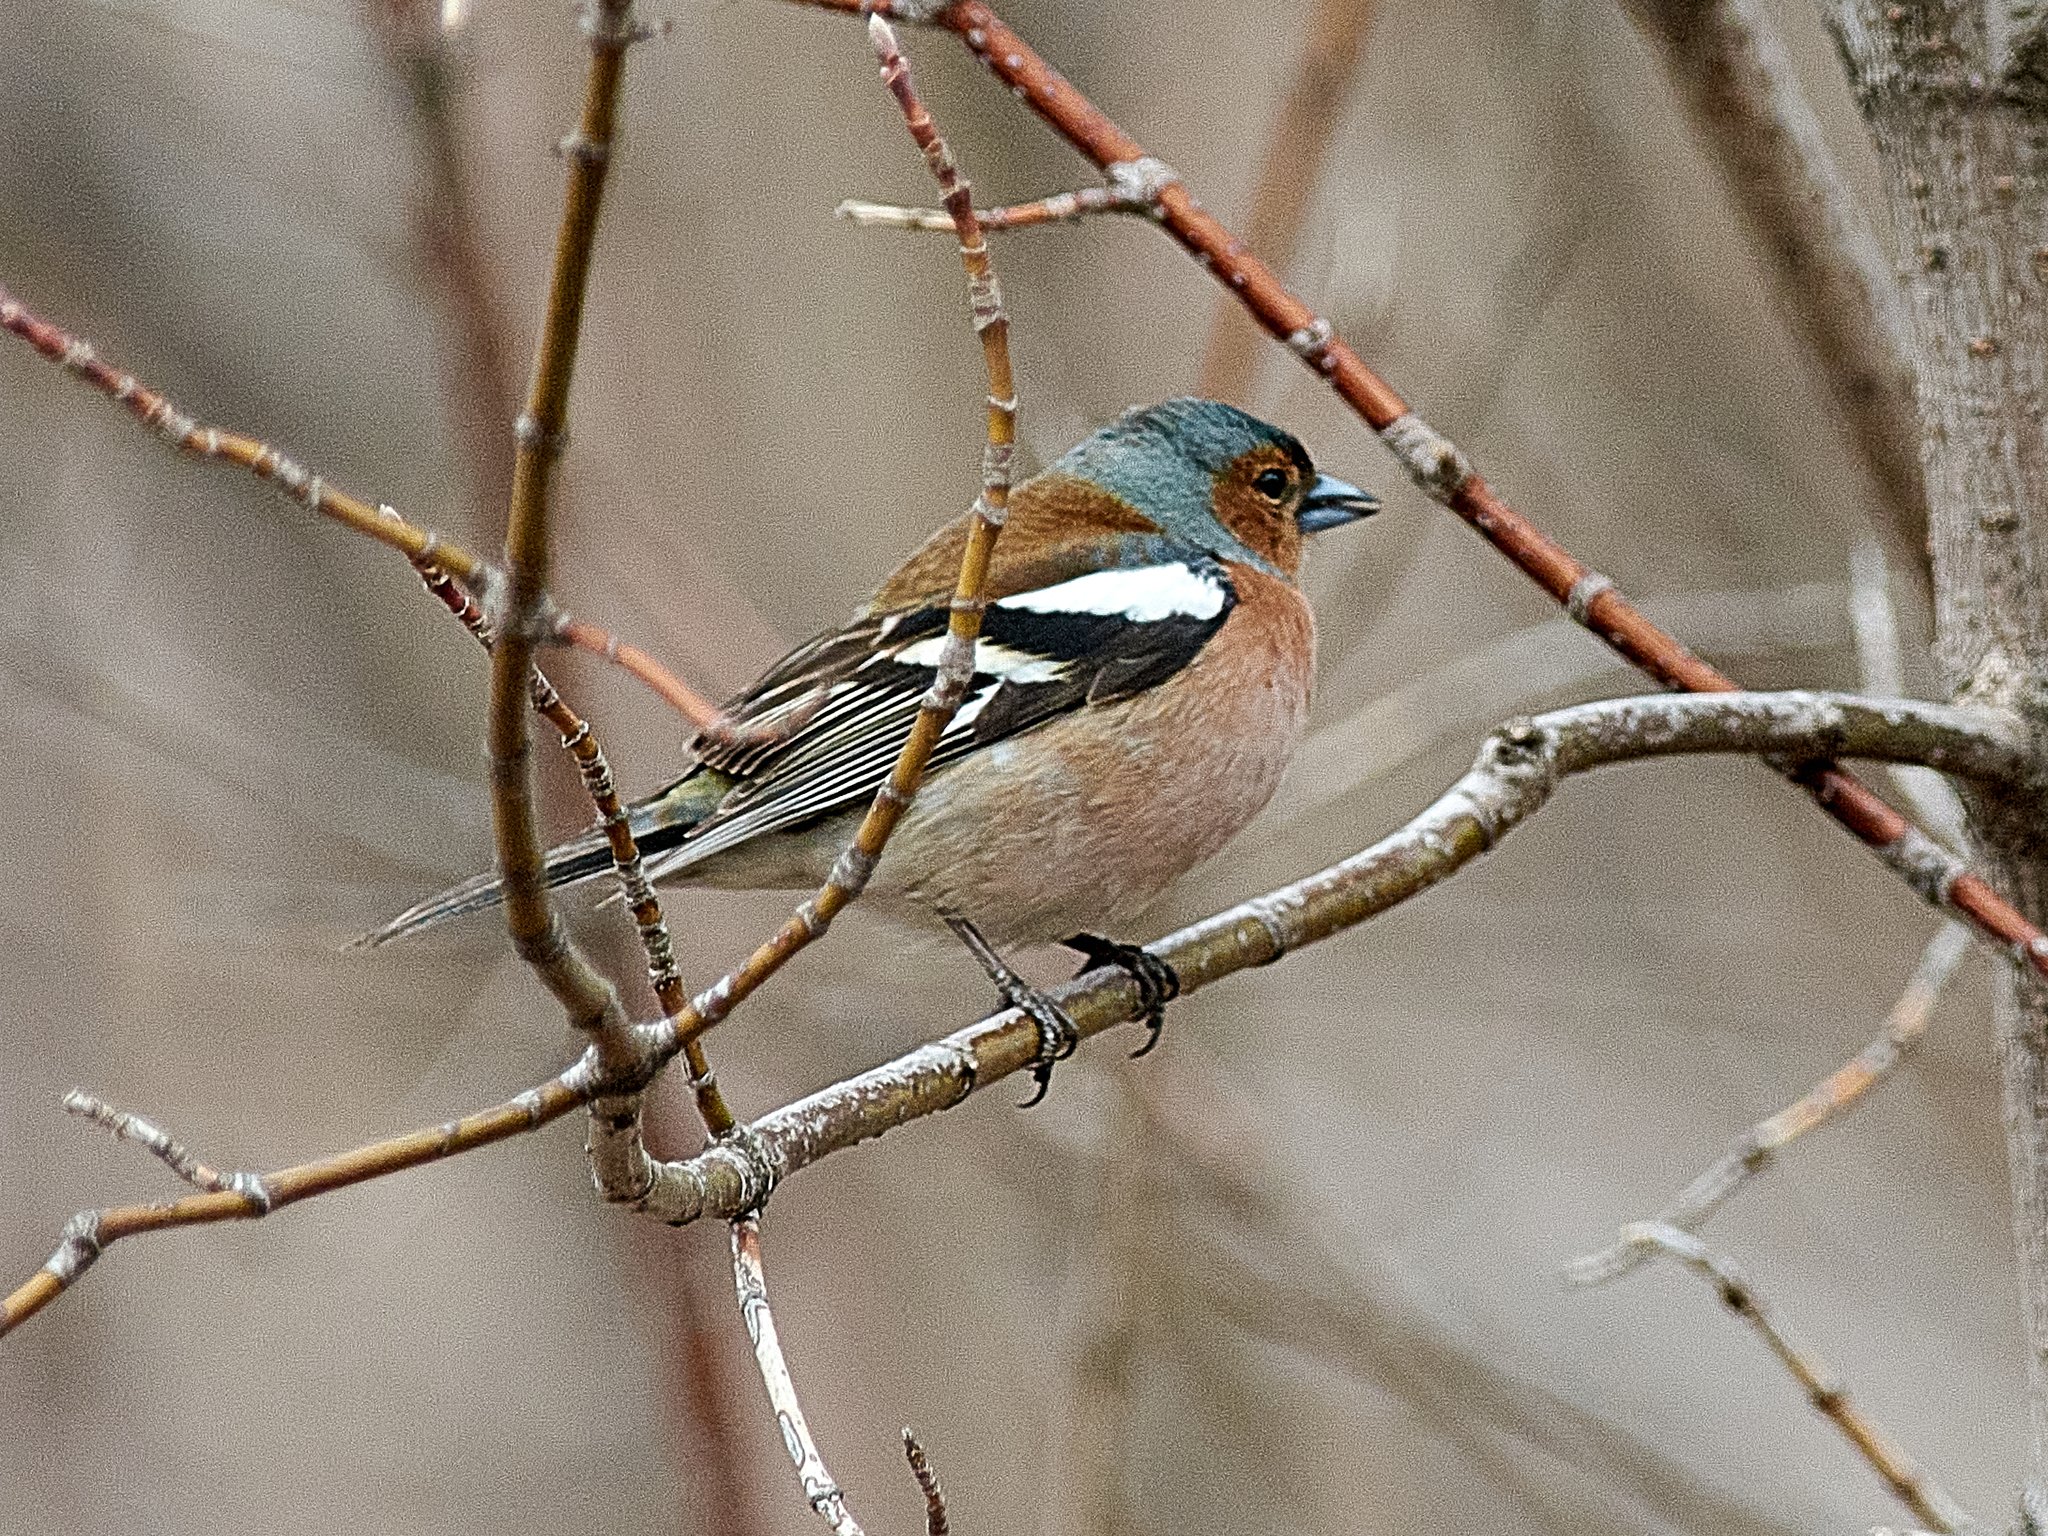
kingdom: Animalia
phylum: Chordata
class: Aves
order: Passeriformes
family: Fringillidae
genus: Fringilla
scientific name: Fringilla coelebs
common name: Common chaffinch
